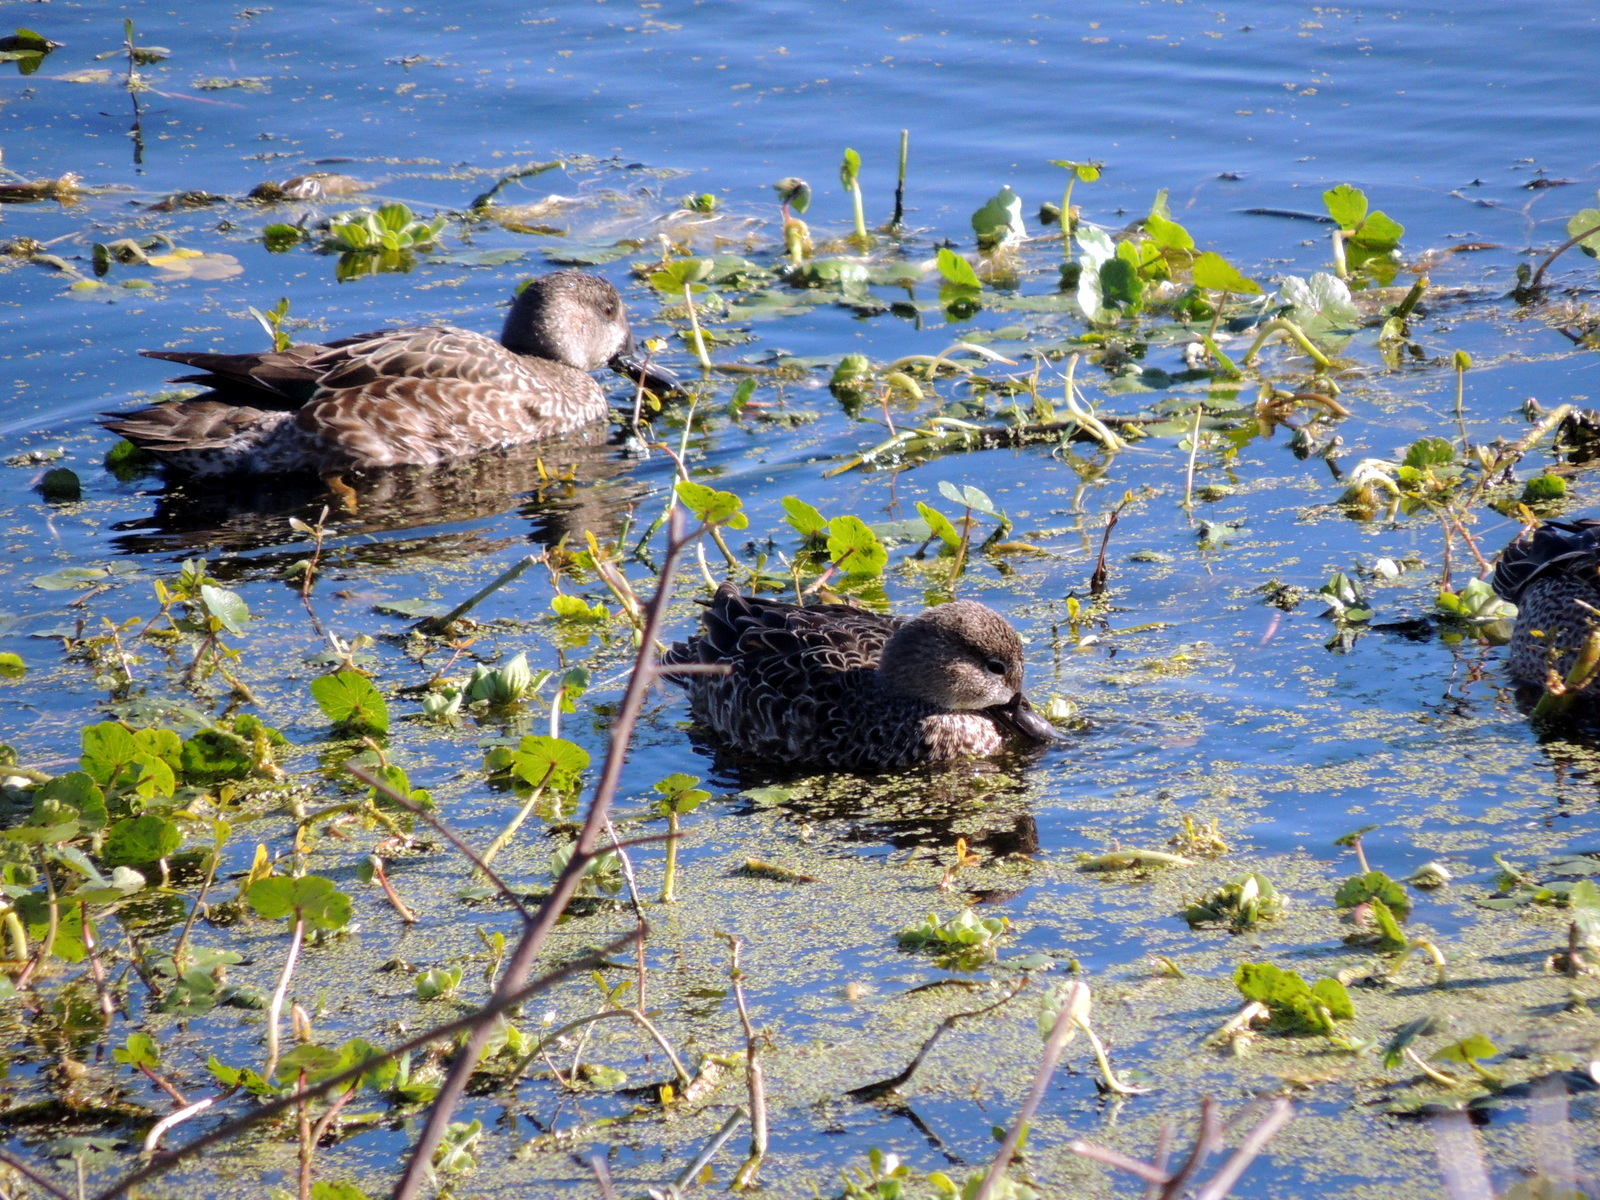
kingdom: Animalia
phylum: Chordata
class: Aves
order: Anseriformes
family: Anatidae
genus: Spatula
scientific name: Spatula discors
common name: Blue-winged teal
